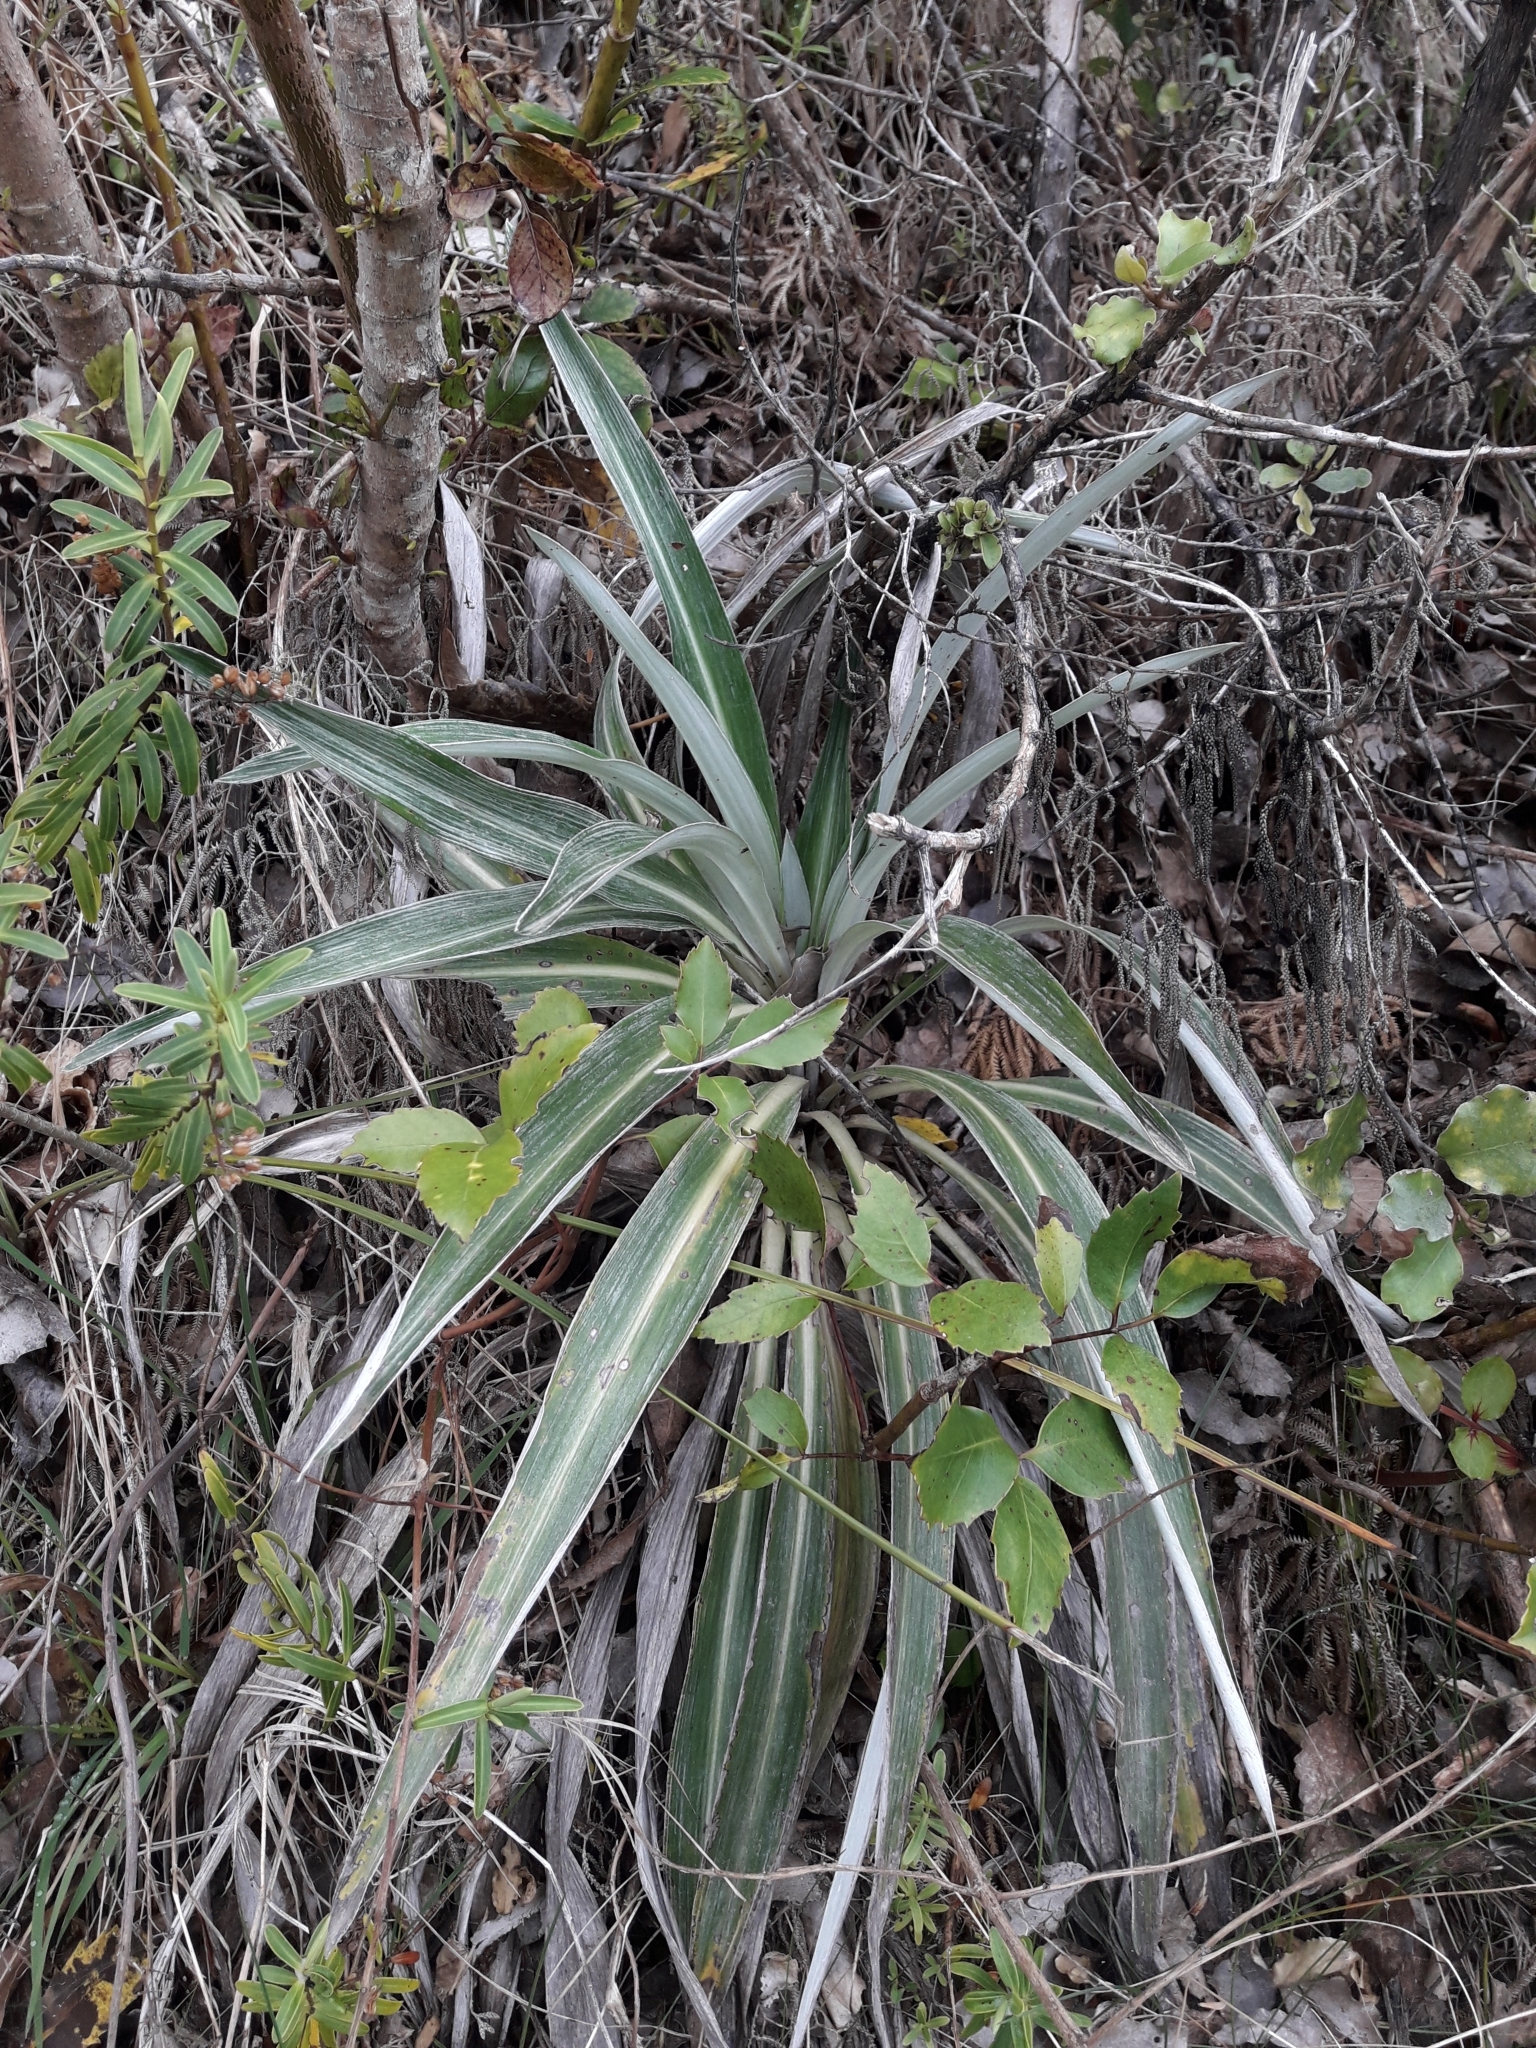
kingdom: Plantae
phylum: Tracheophyta
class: Magnoliopsida
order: Asterales
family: Asteraceae
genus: Celmisia
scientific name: Celmisia monroi
